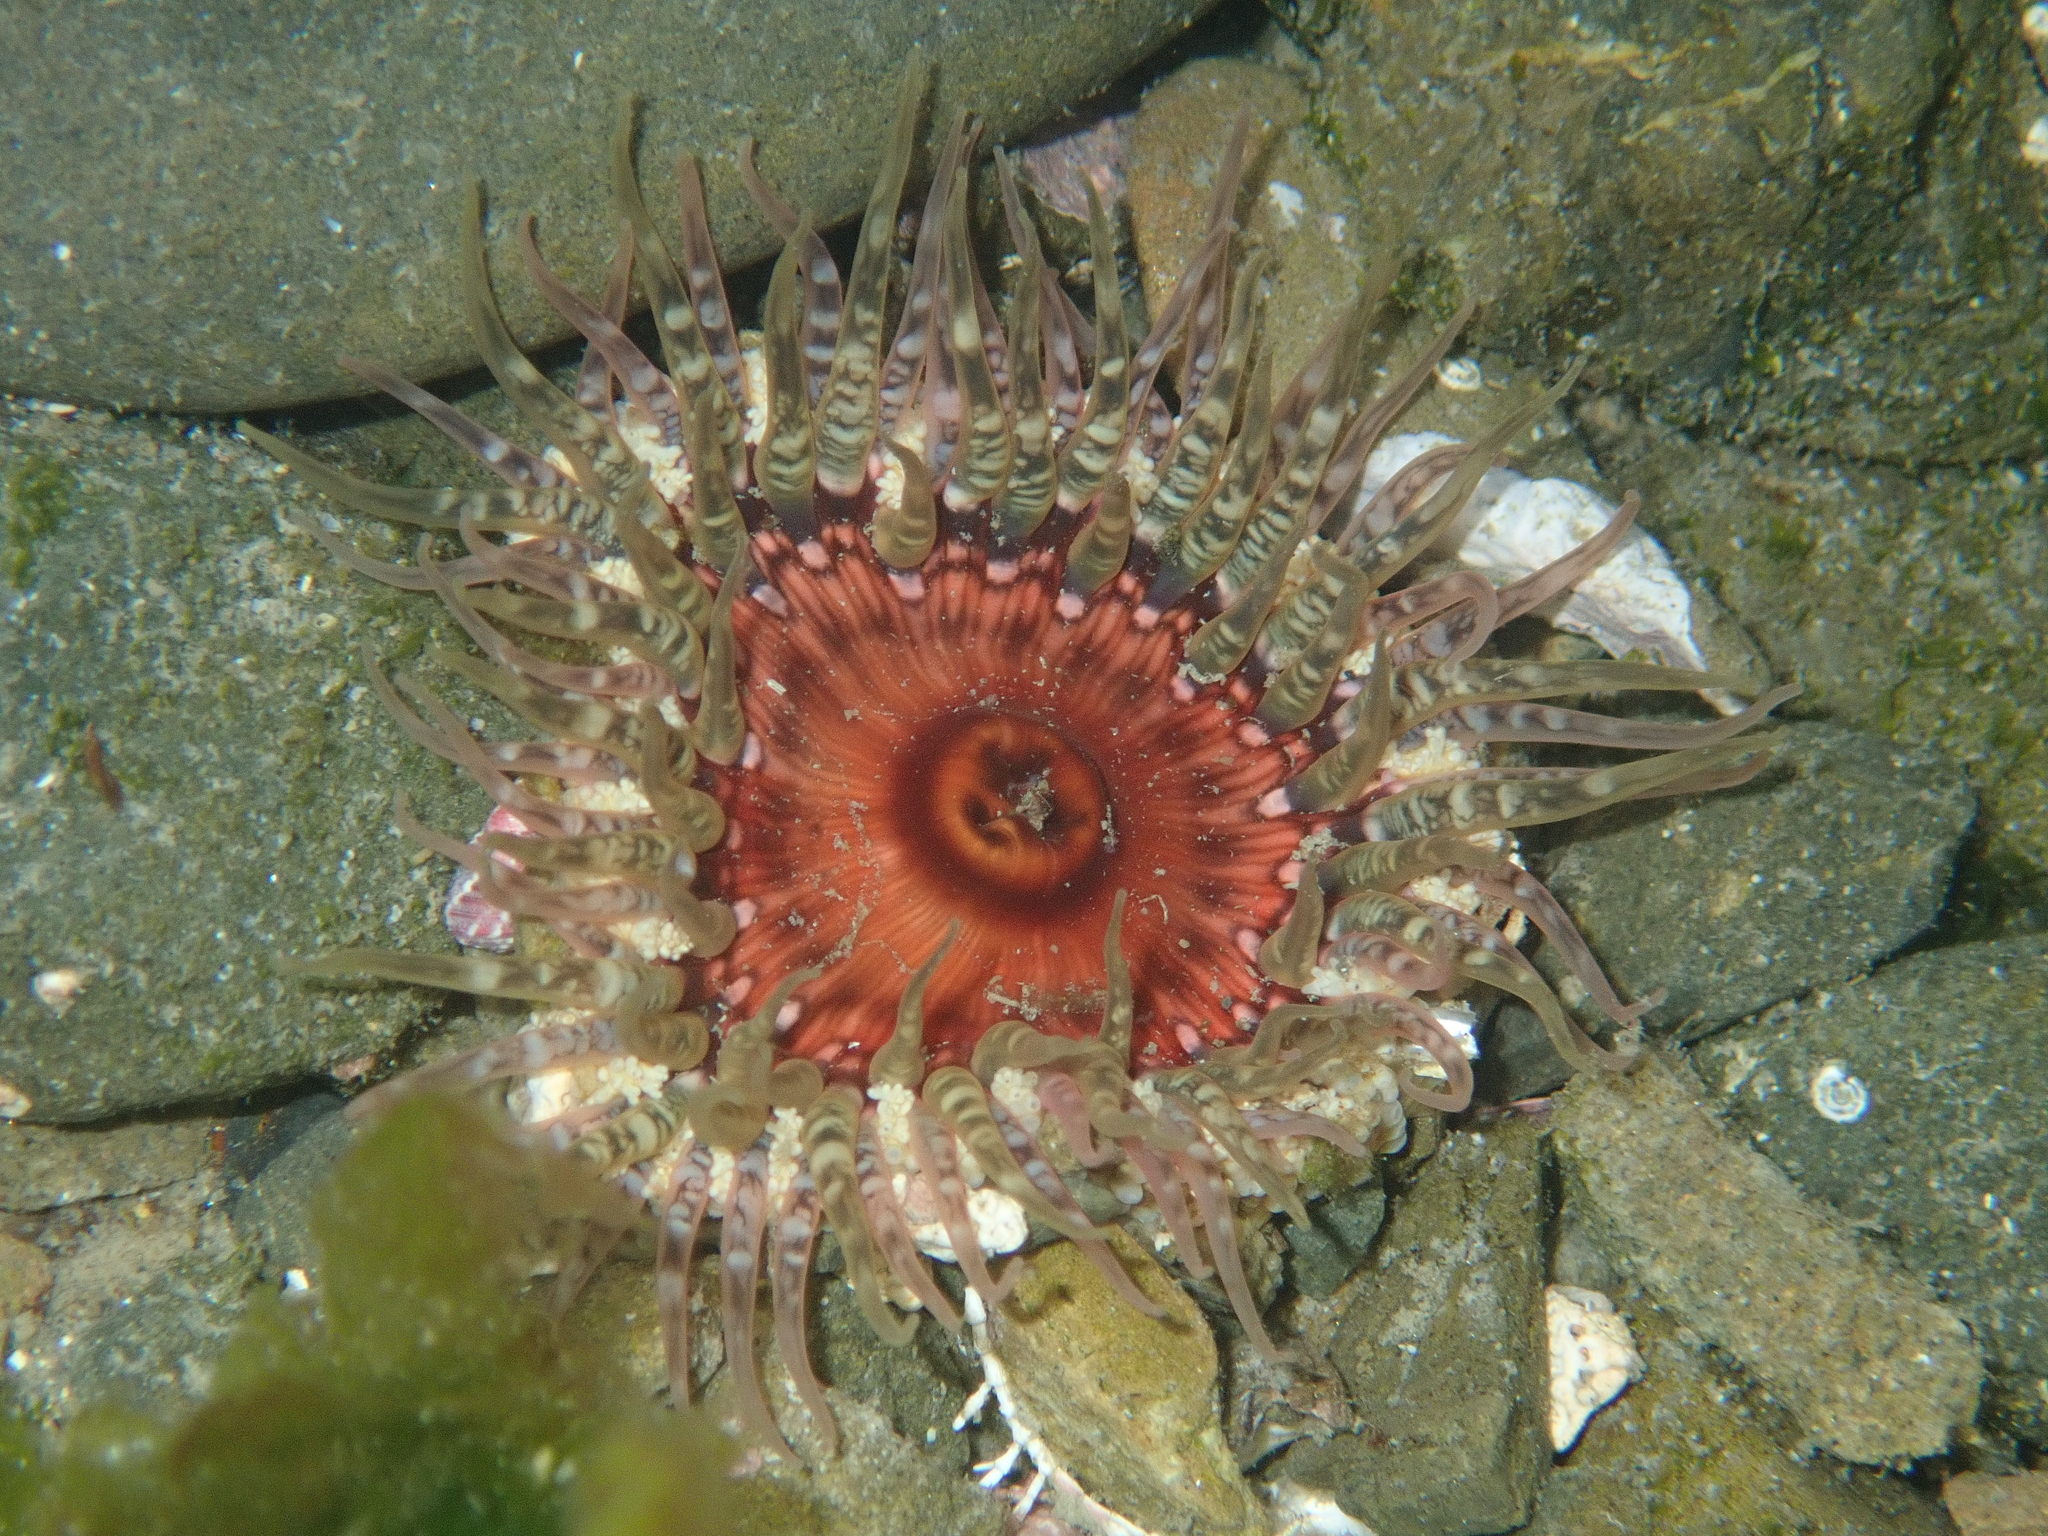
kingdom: Animalia
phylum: Cnidaria
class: Anthozoa
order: Actiniaria
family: Actiniidae
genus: Oulactis
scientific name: Oulactis muscosa
